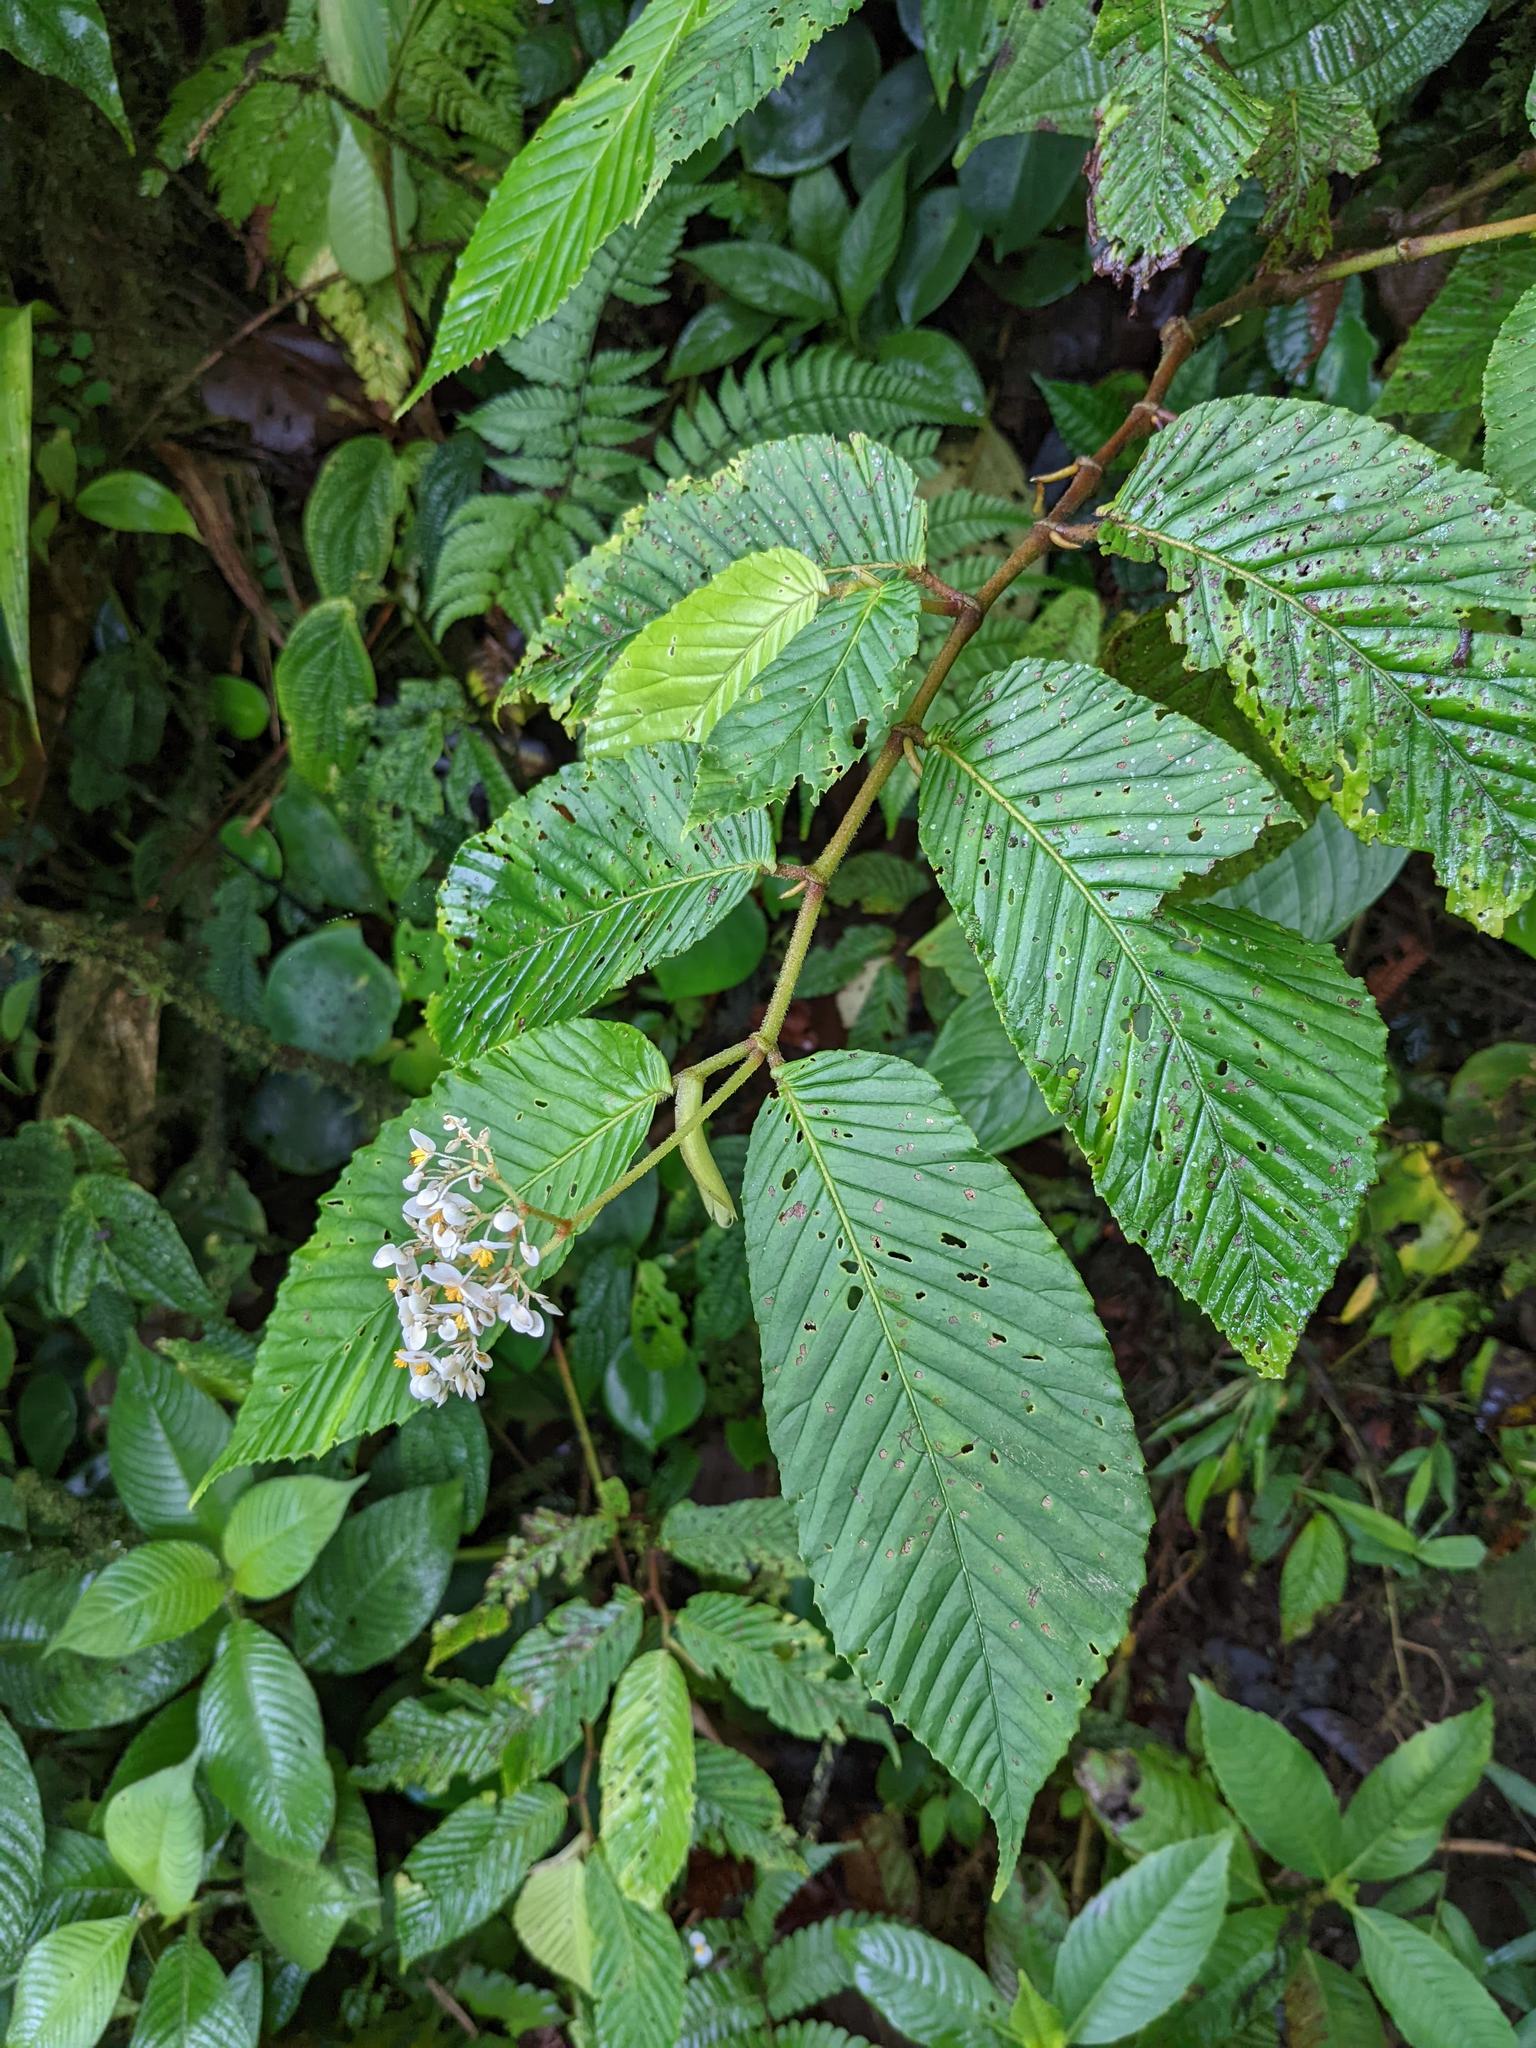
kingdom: Plantae
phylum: Tracheophyta
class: Magnoliopsida
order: Cucurbitales
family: Begoniaceae
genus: Begonia
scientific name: Begonia cooperi
